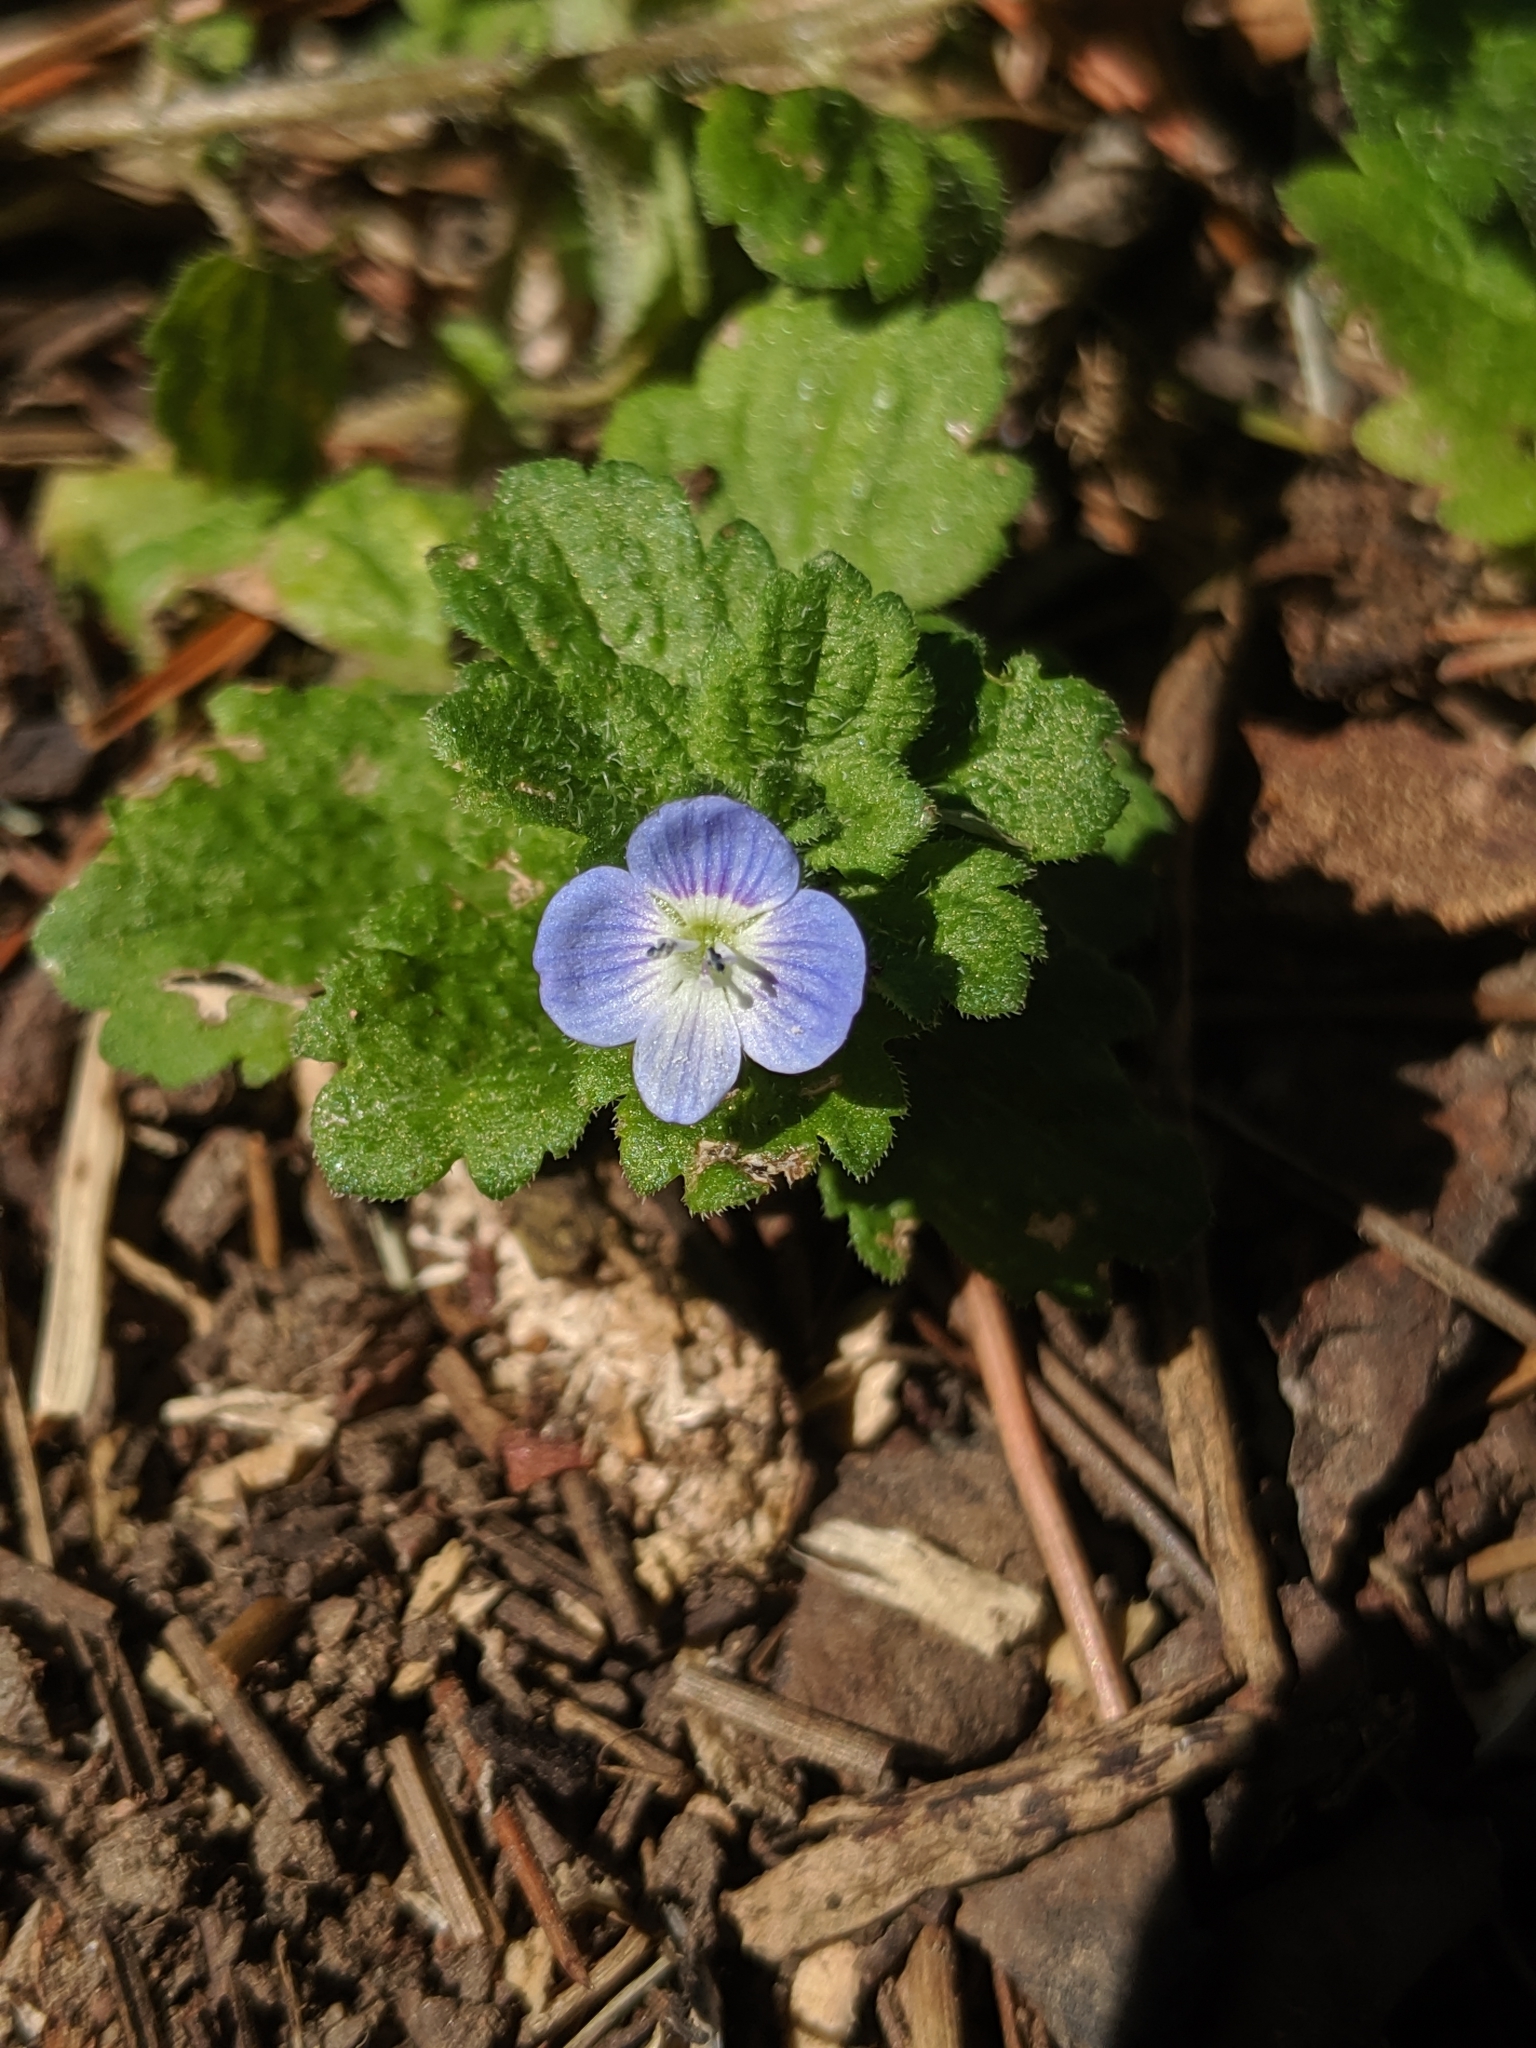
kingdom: Plantae
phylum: Tracheophyta
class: Magnoliopsida
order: Lamiales
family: Plantaginaceae
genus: Veronica
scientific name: Veronica persica
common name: Common field-speedwell
